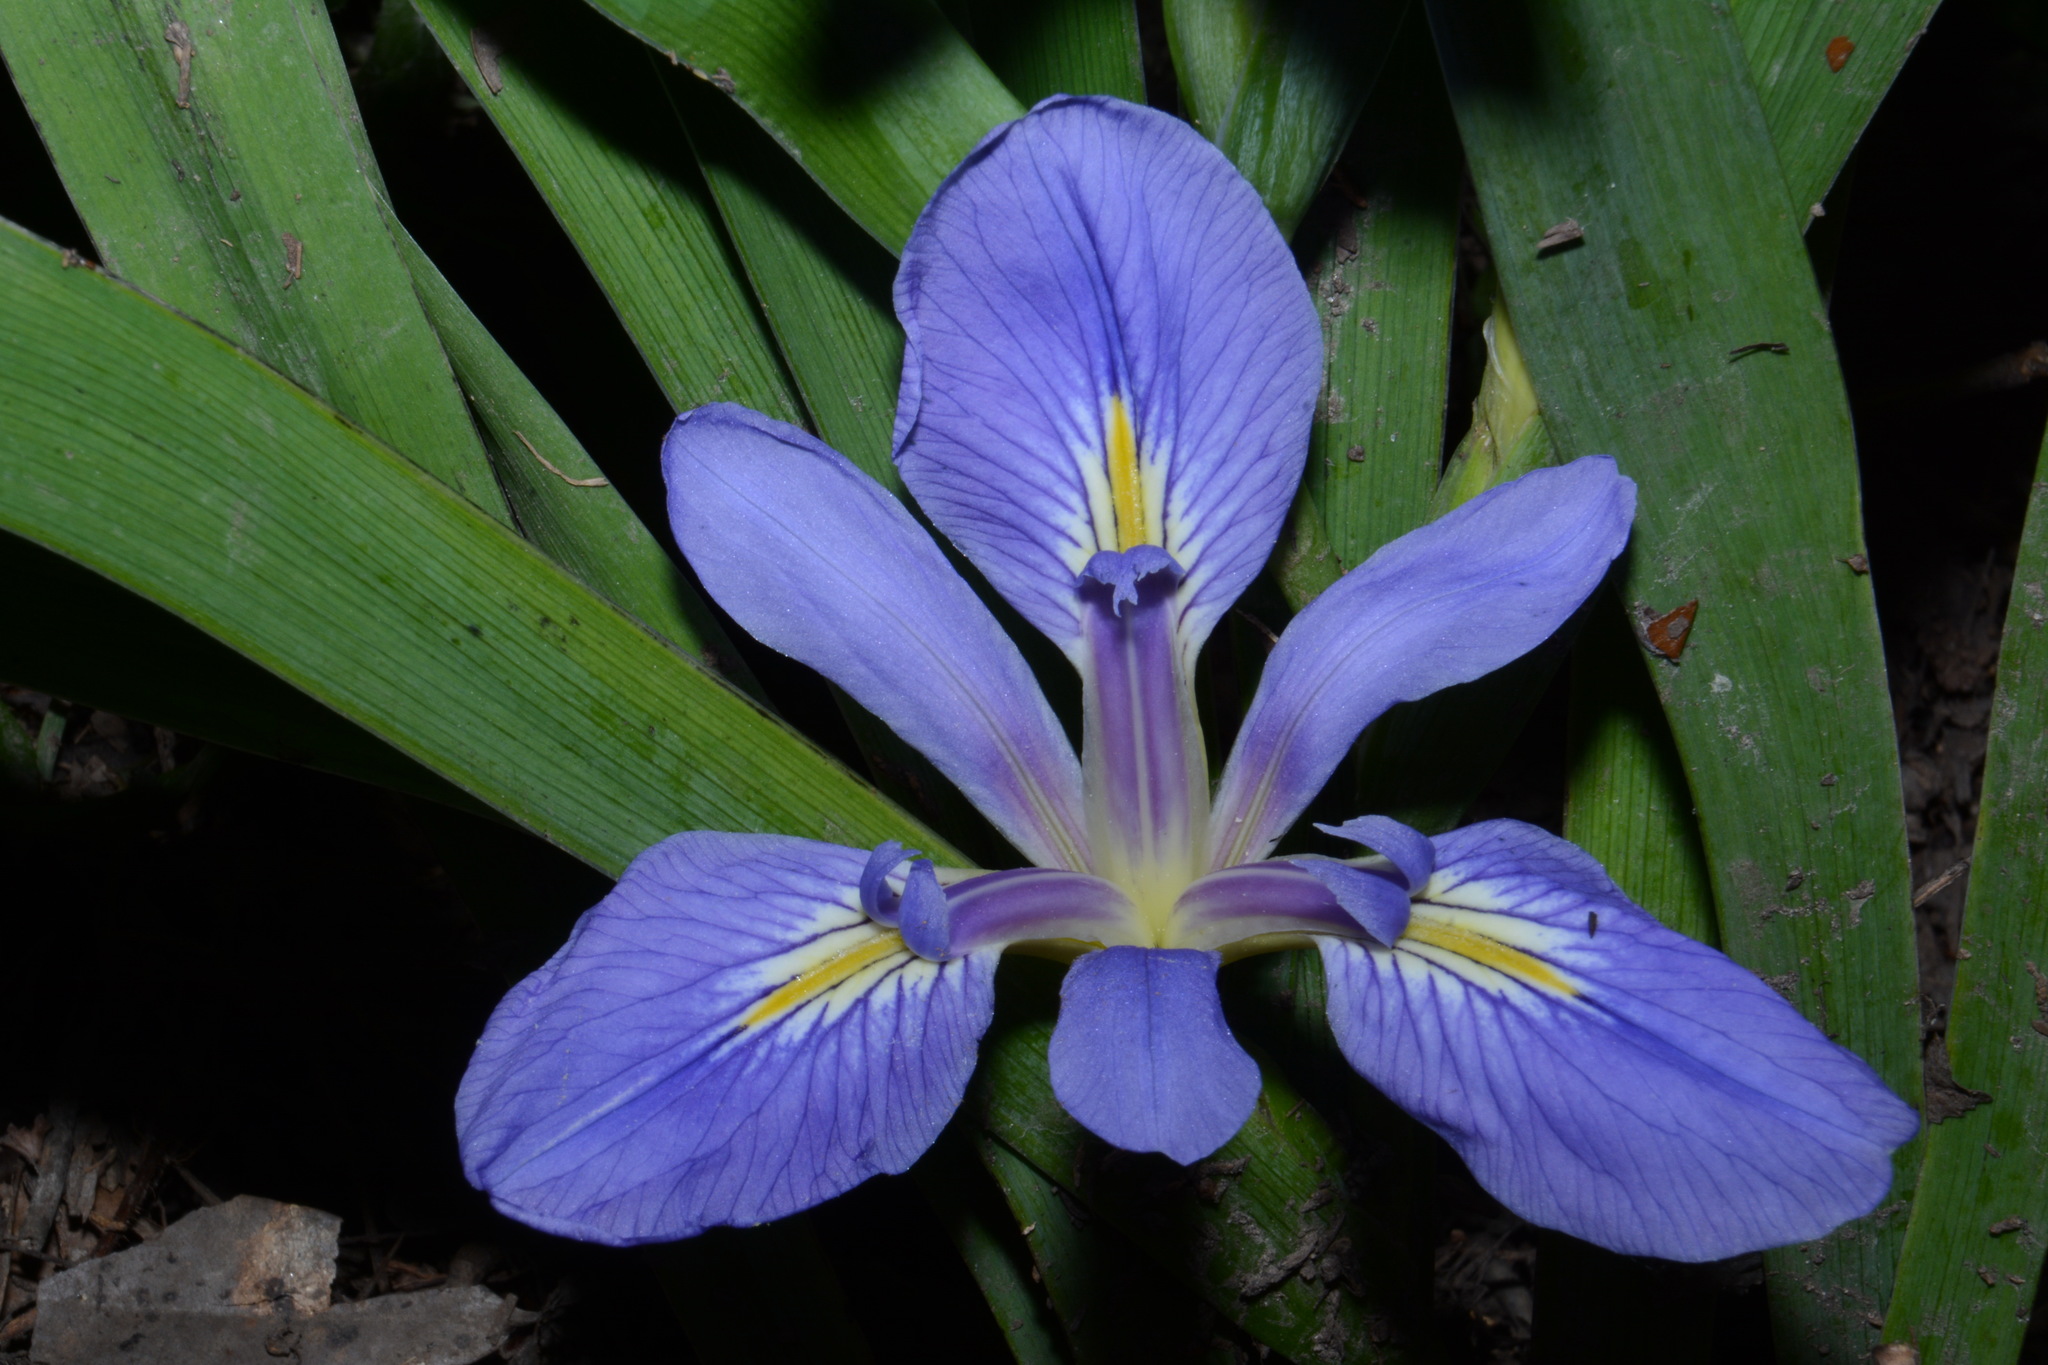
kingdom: Plantae
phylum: Tracheophyta
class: Liliopsida
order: Asparagales
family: Iridaceae
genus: Iris
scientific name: Iris brevicaulis
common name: Zigzag iris
